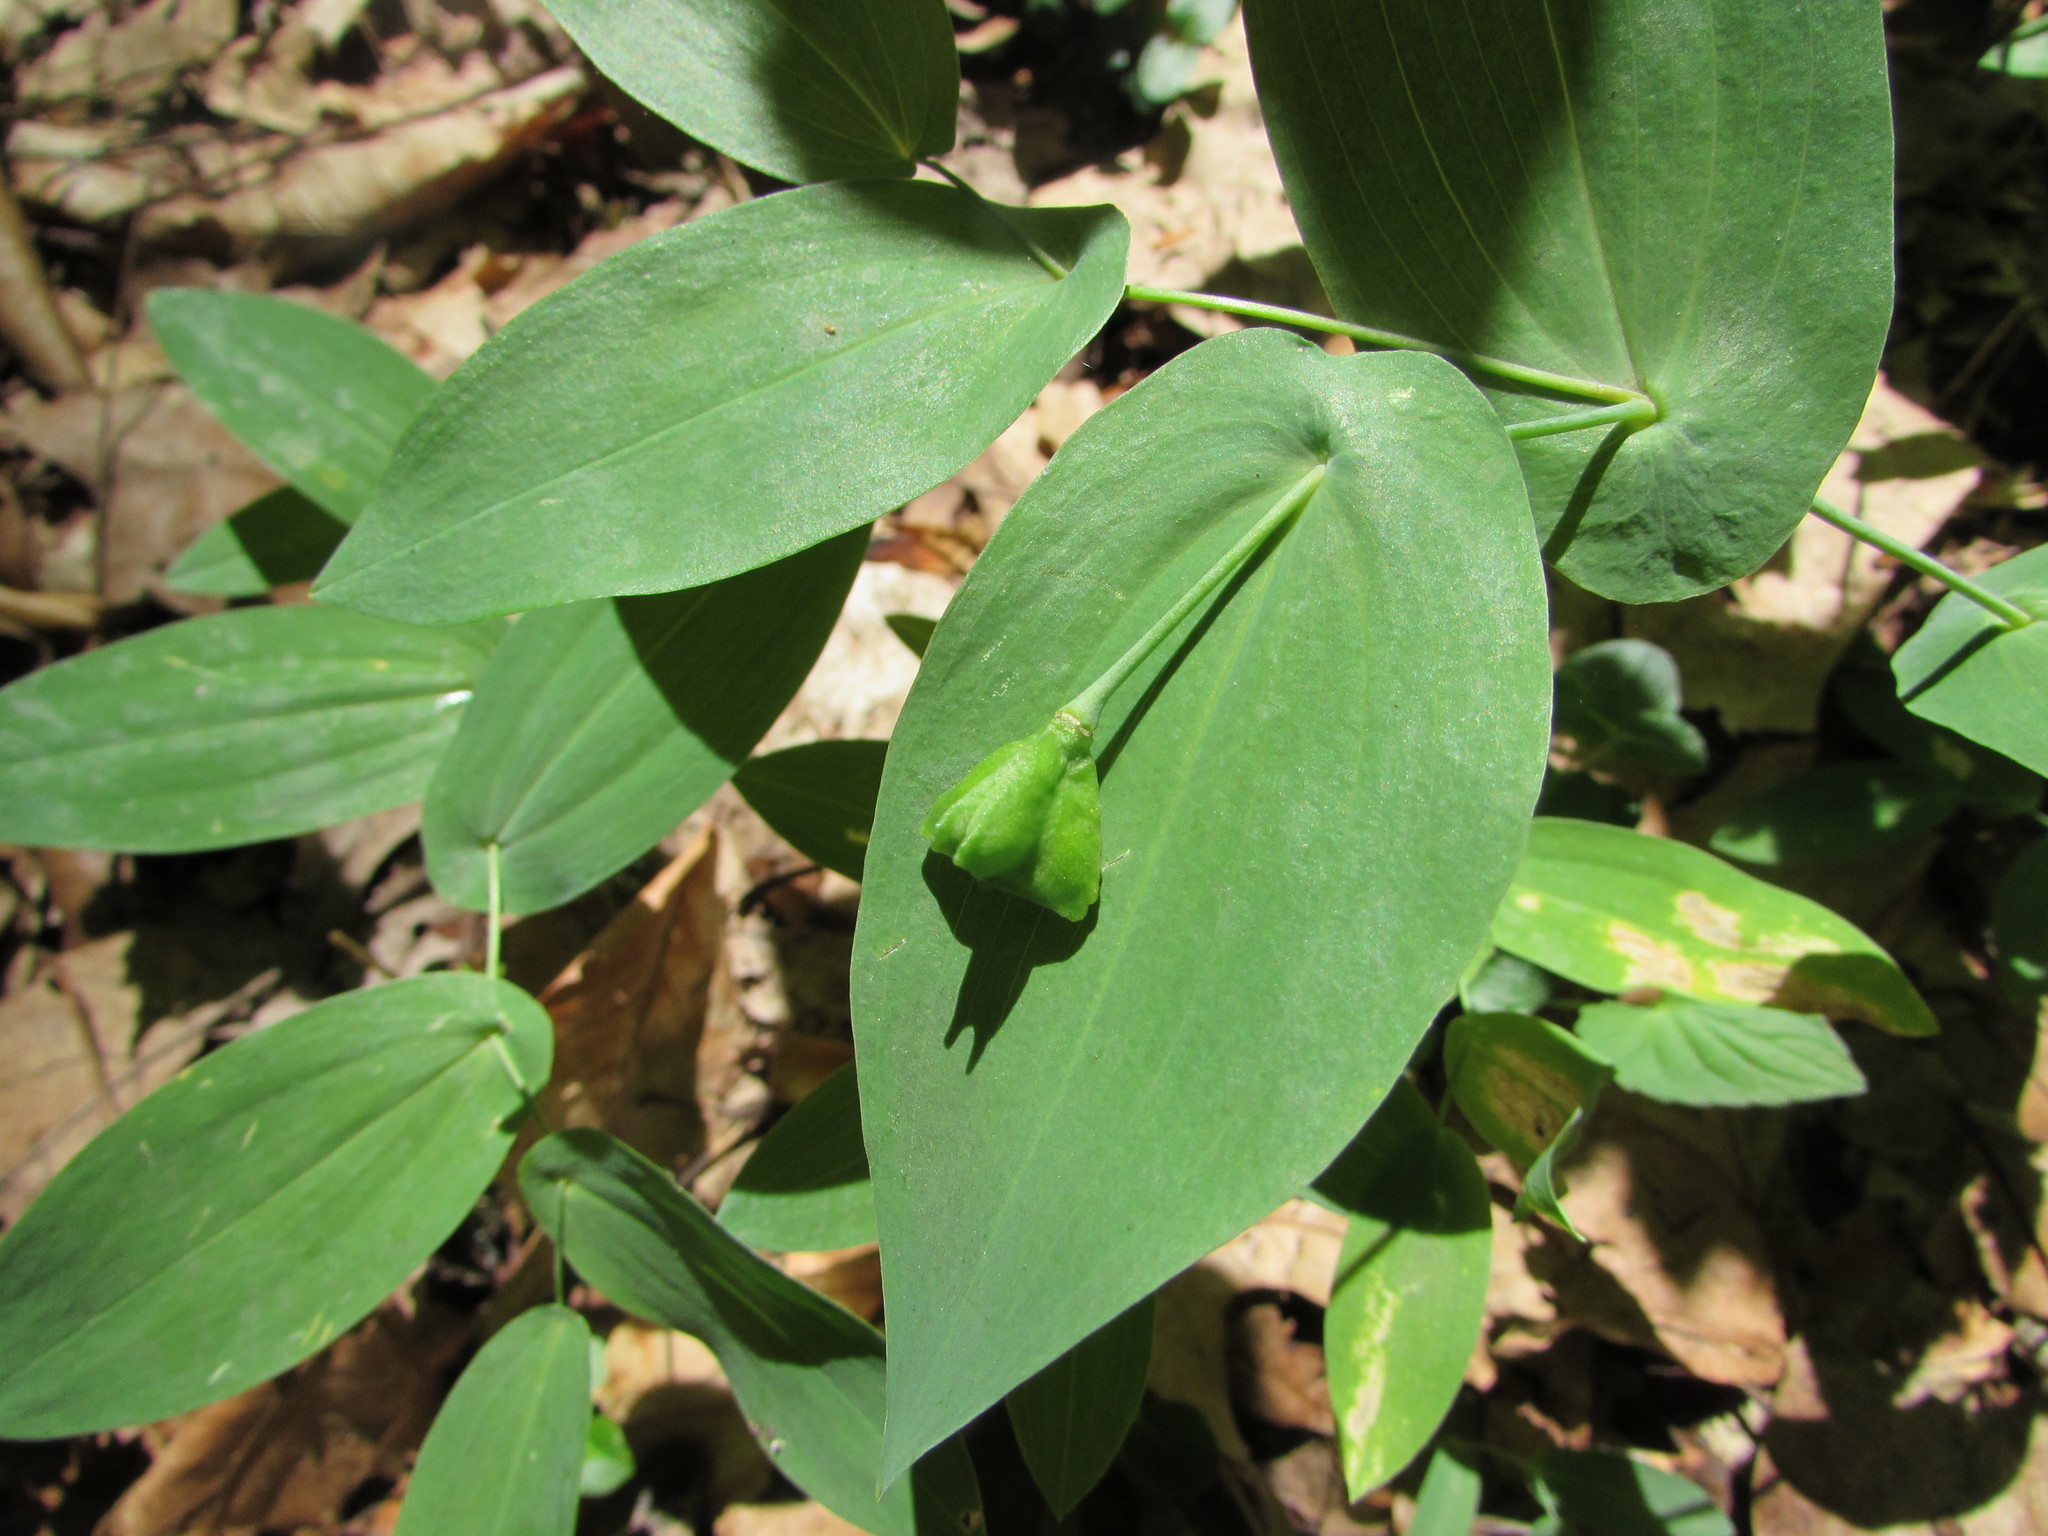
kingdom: Plantae
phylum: Tracheophyta
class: Liliopsida
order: Liliales
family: Colchicaceae
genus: Uvularia
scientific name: Uvularia perfoliata
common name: Perfoliate bellwort
